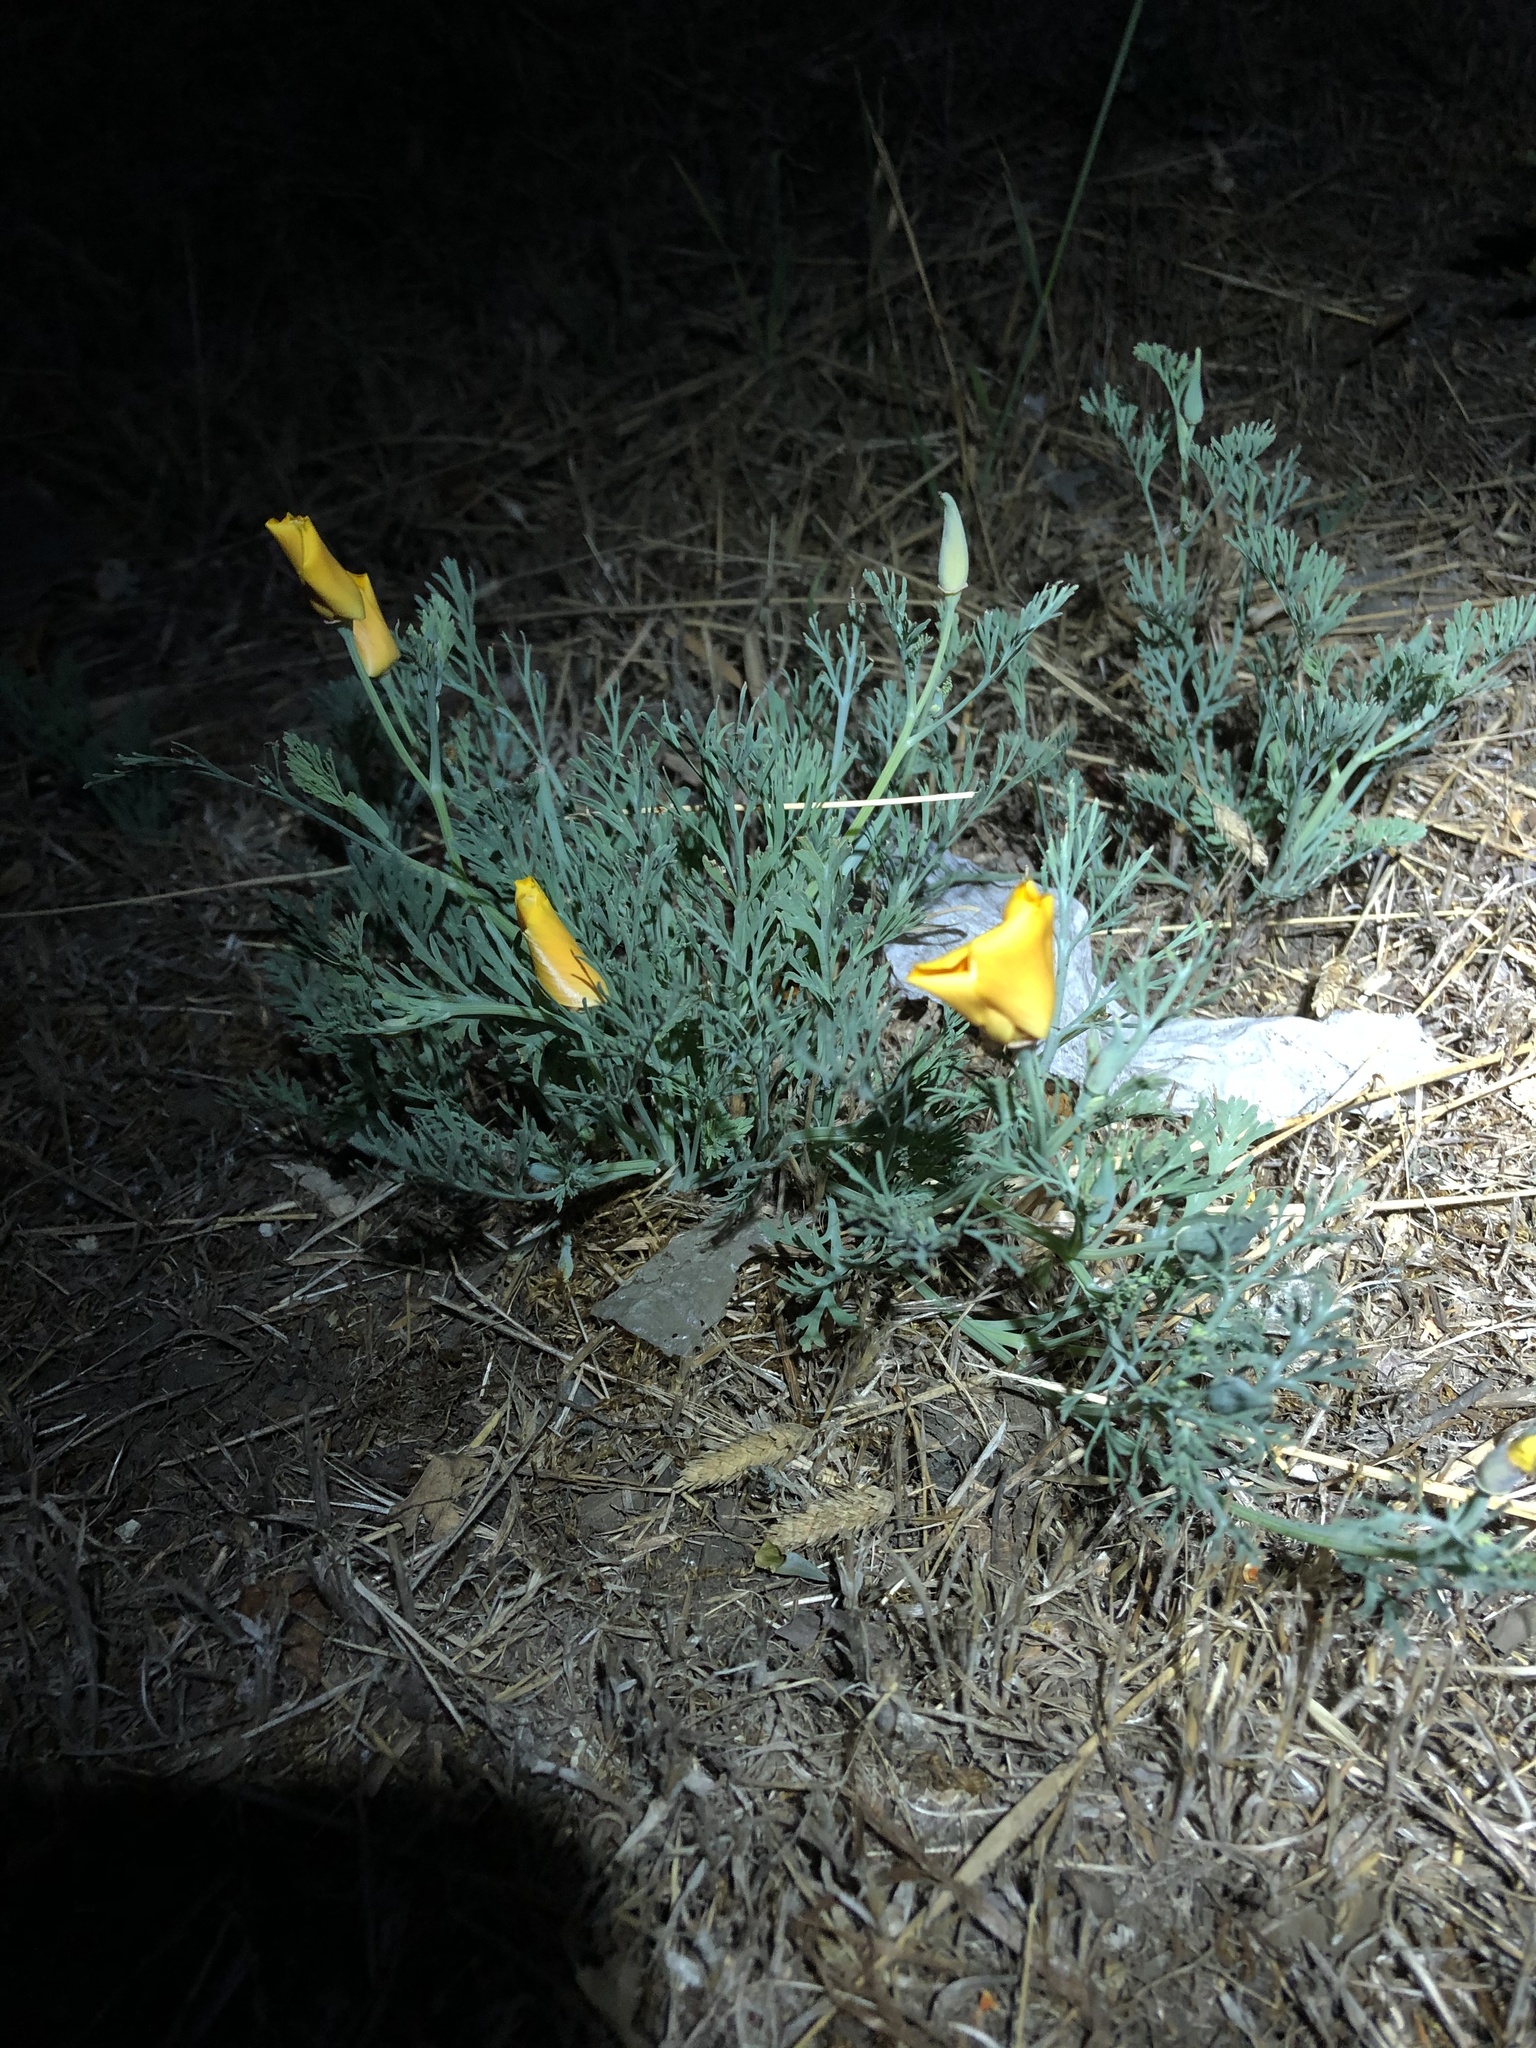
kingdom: Plantae
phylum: Tracheophyta
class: Magnoliopsida
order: Ranunculales
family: Papaveraceae
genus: Eschscholzia
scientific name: Eschscholzia californica
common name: California poppy
